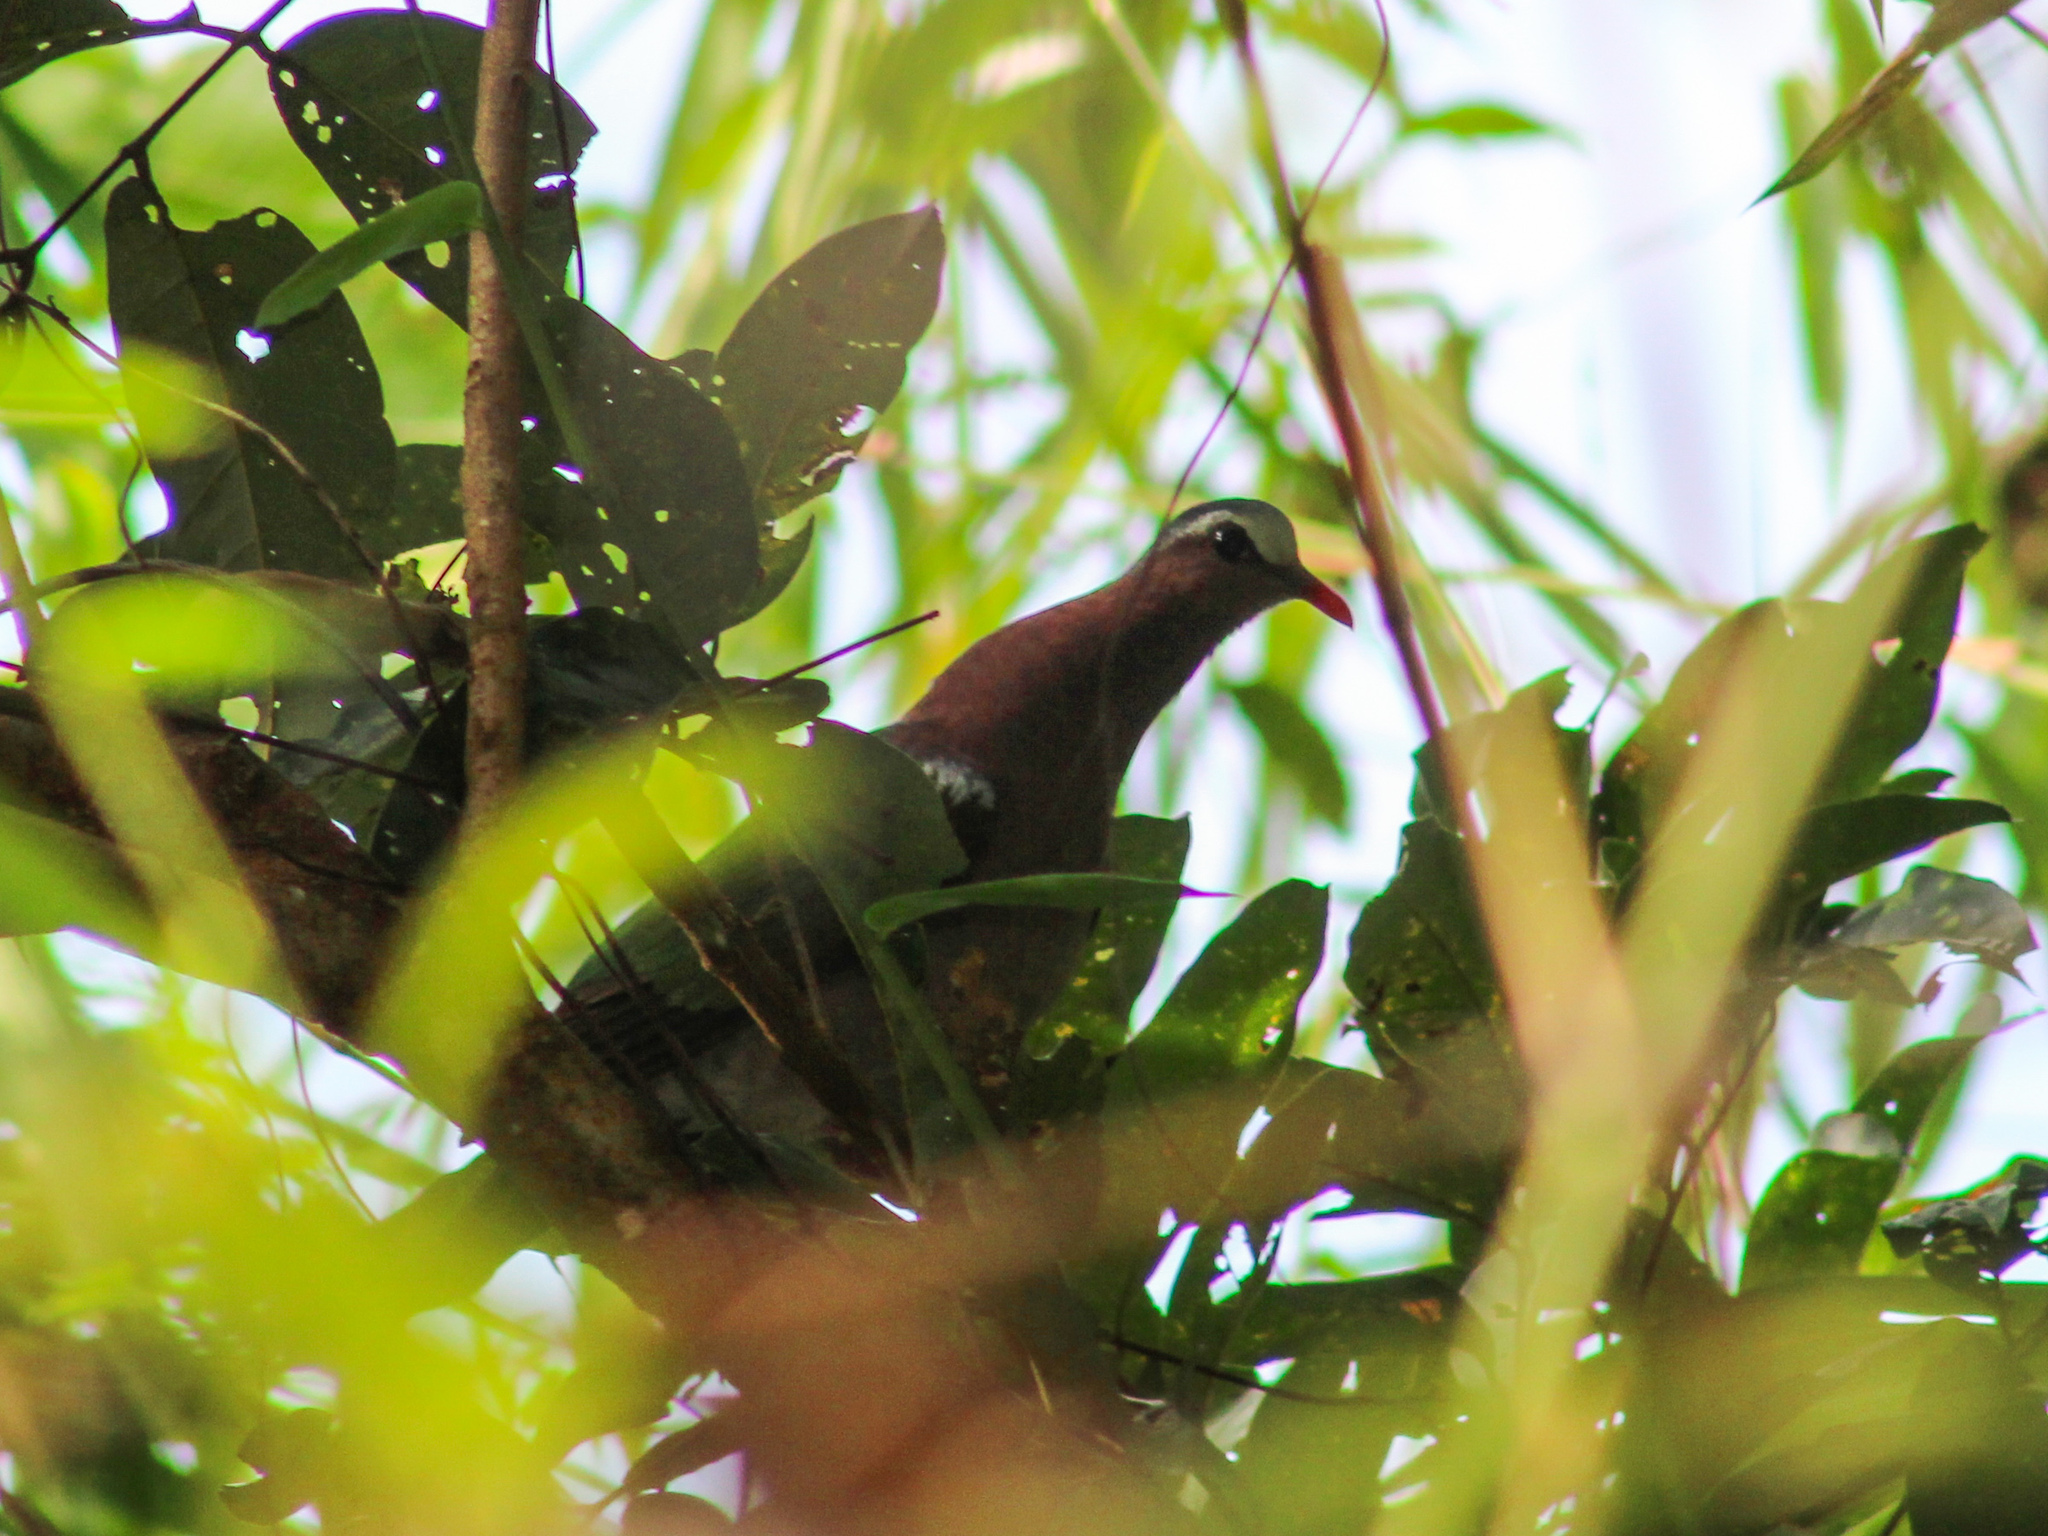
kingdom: Animalia
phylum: Chordata
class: Aves
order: Columbiformes
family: Columbidae
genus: Chalcophaps
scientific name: Chalcophaps indica
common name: Common emerald dove
